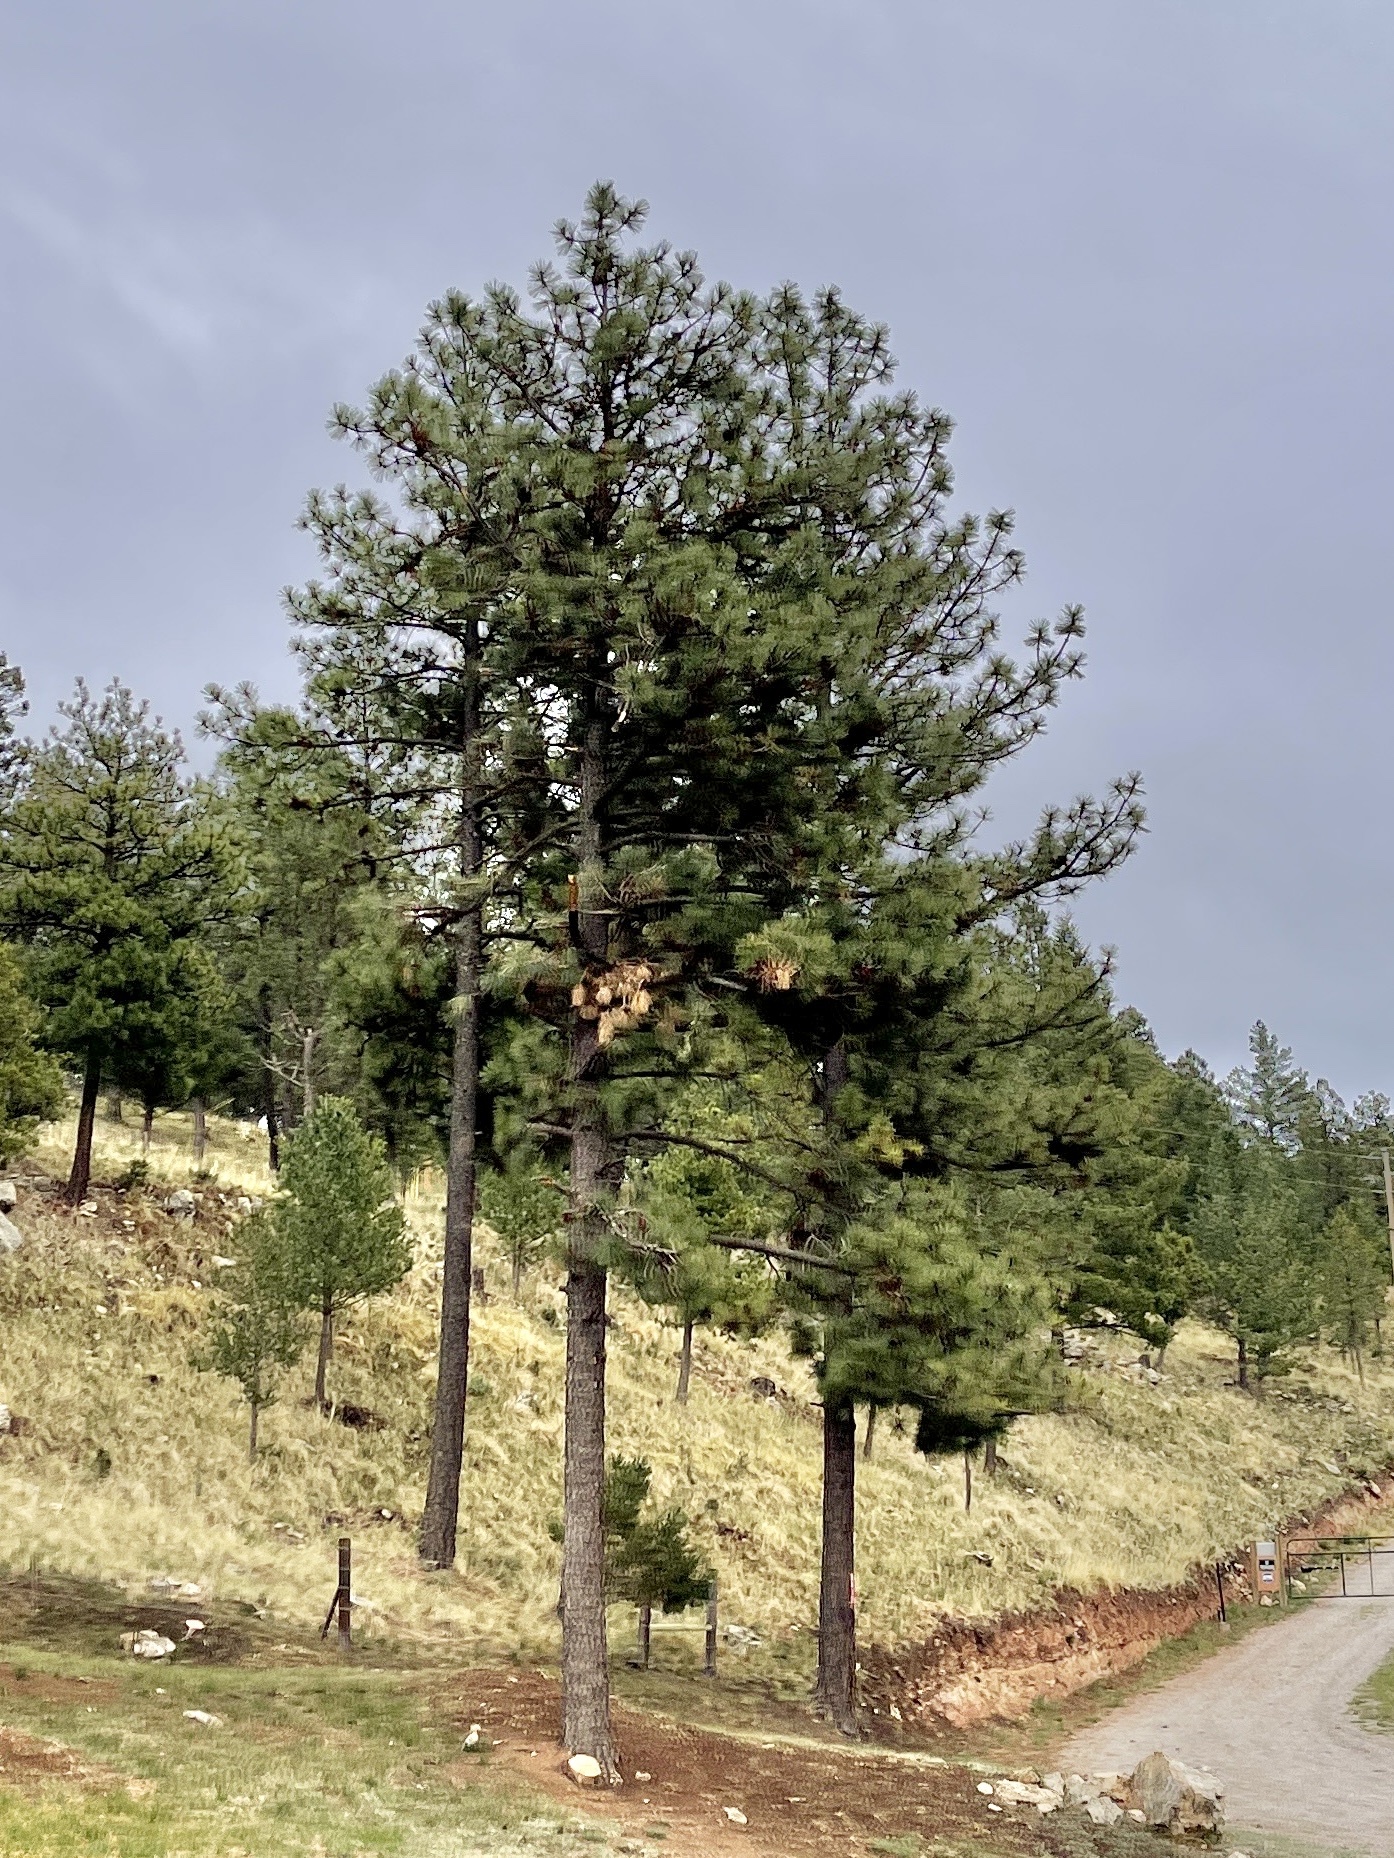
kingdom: Plantae
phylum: Tracheophyta
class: Pinopsida
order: Pinales
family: Pinaceae
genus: Pinus
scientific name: Pinus ponderosa
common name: Western yellow-pine
